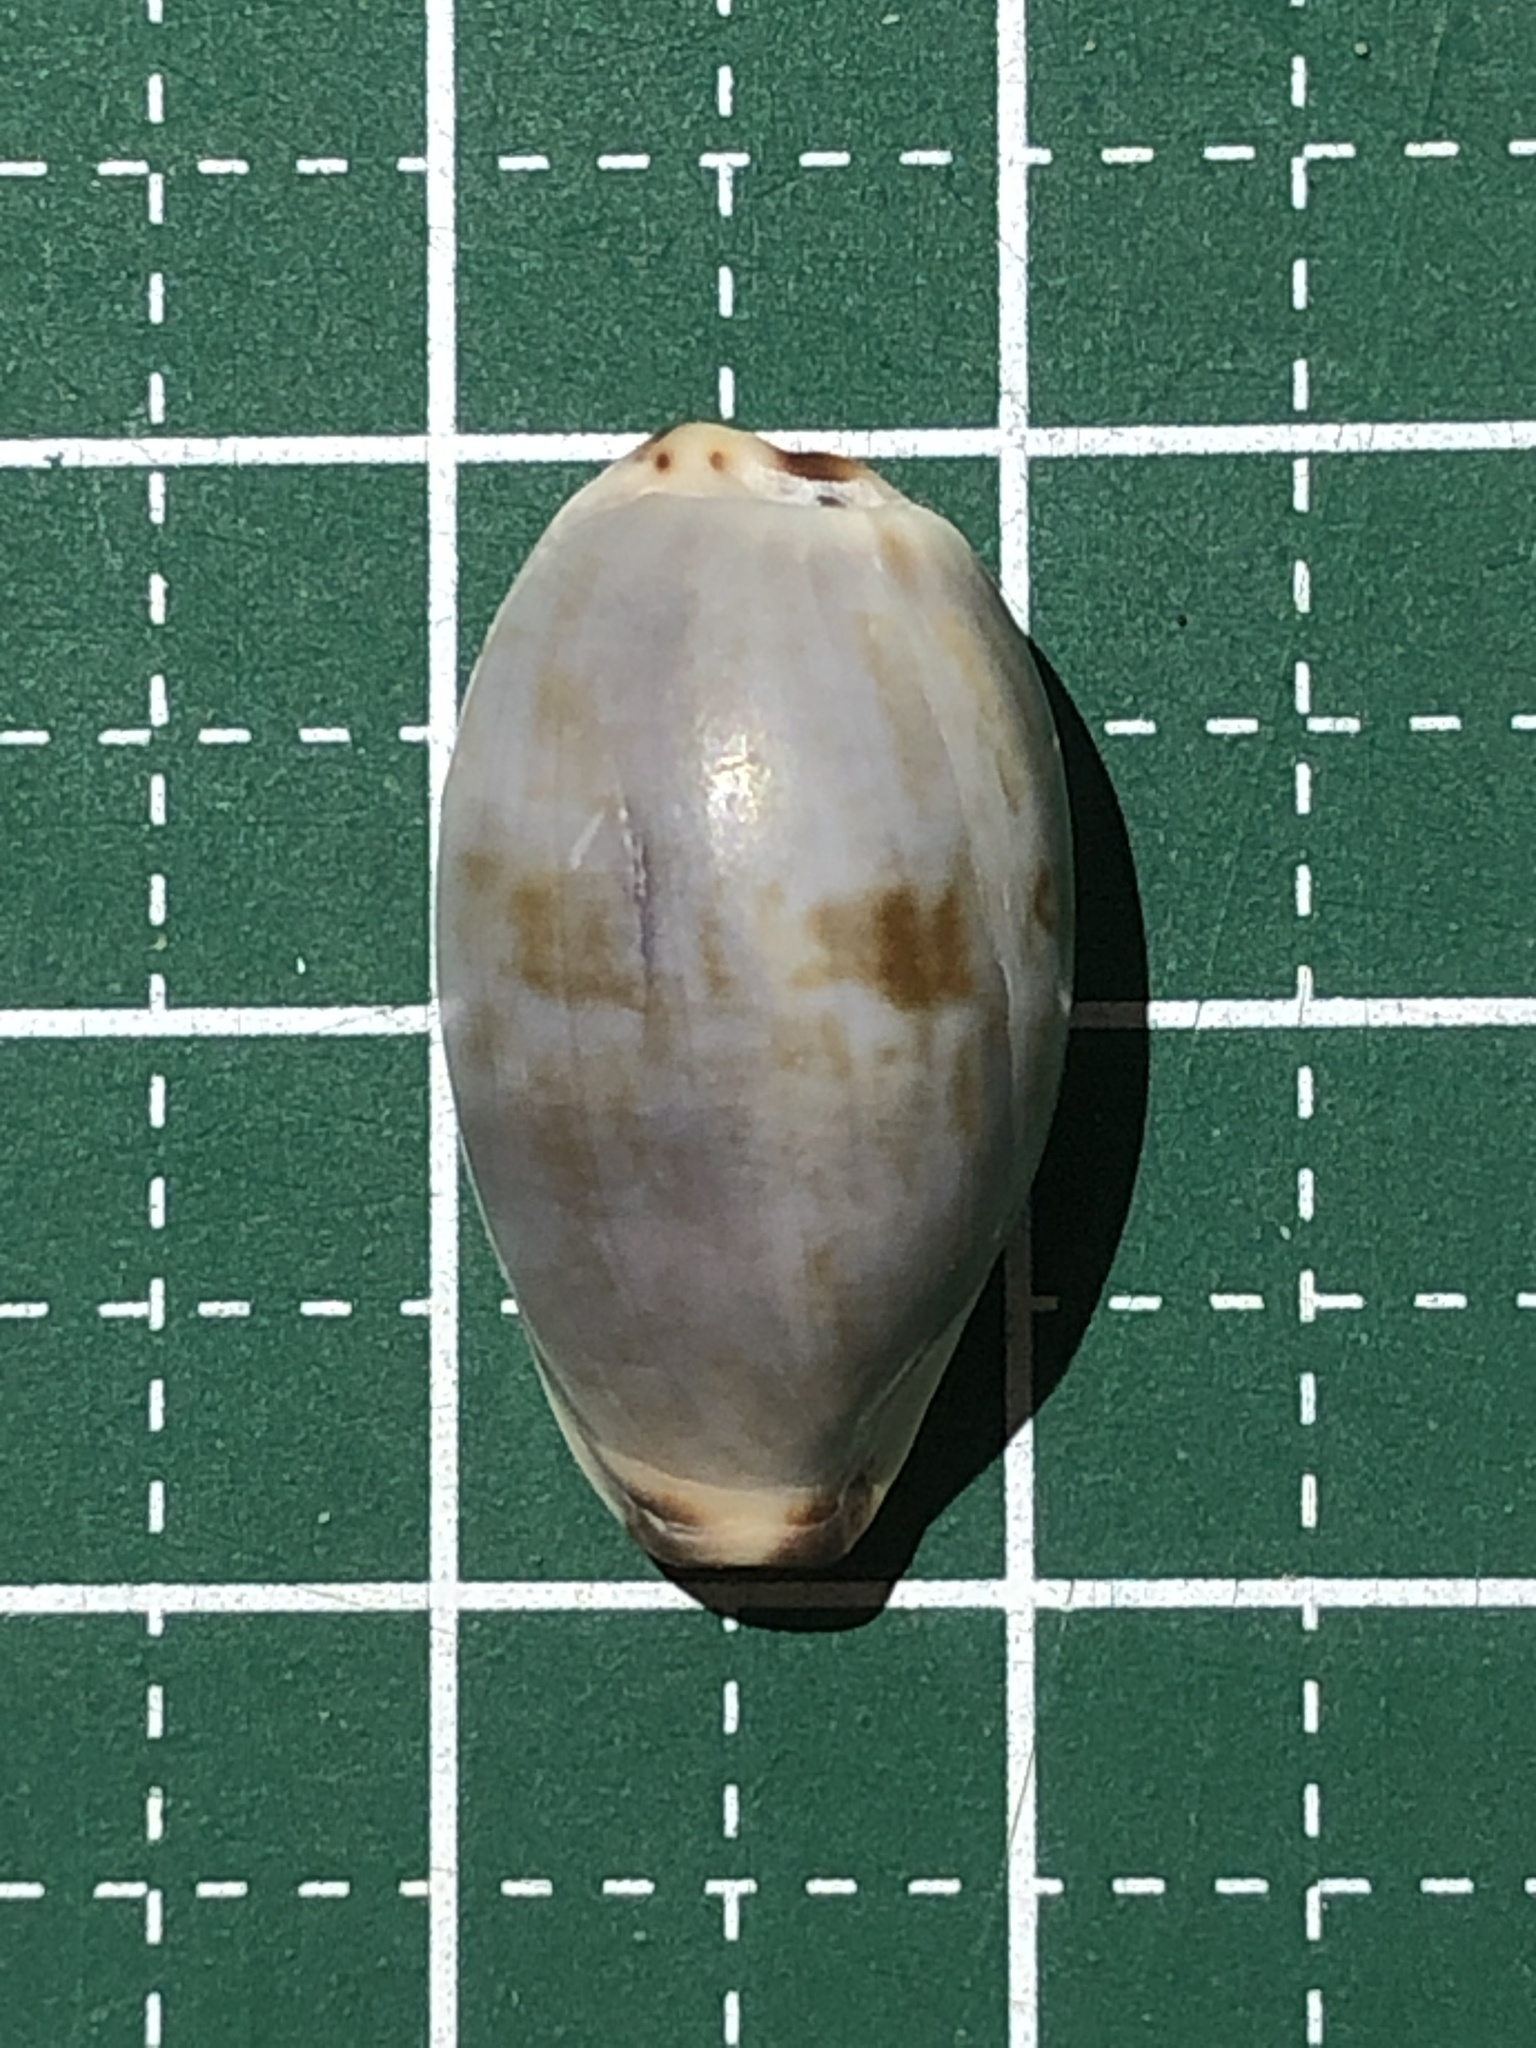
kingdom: Animalia
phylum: Mollusca
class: Gastropoda
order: Littorinimorpha
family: Cypraeidae
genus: Purpuradusta
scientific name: Purpuradusta gracilis
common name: Graceful cowrie
